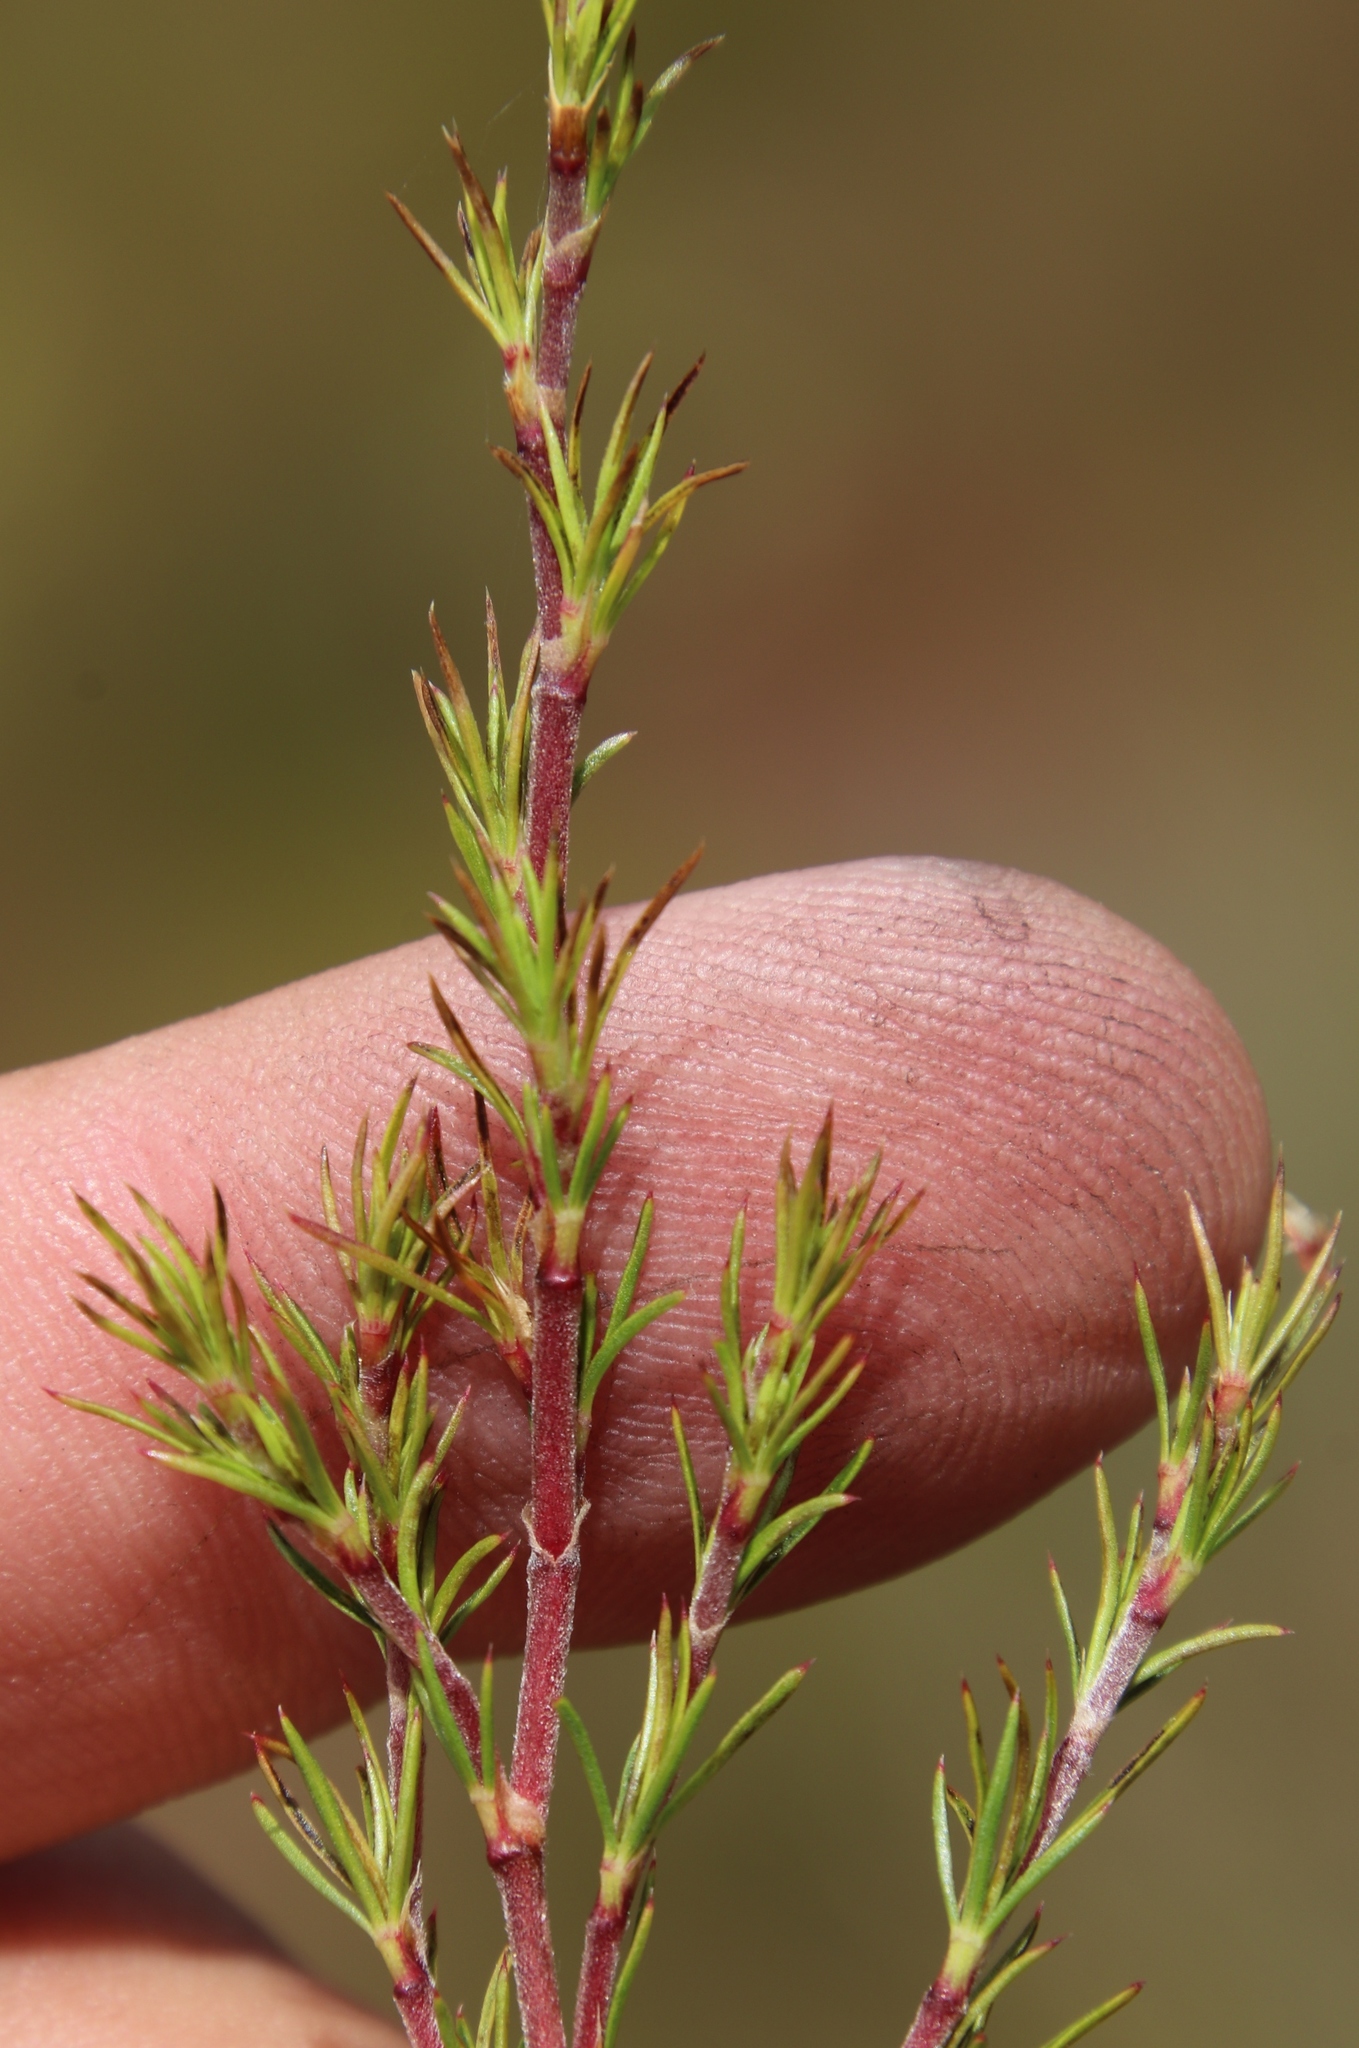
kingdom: Plantae
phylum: Tracheophyta
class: Magnoliopsida
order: Rosales
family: Rosaceae
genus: Cliffortia
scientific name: Cliffortia atrata
